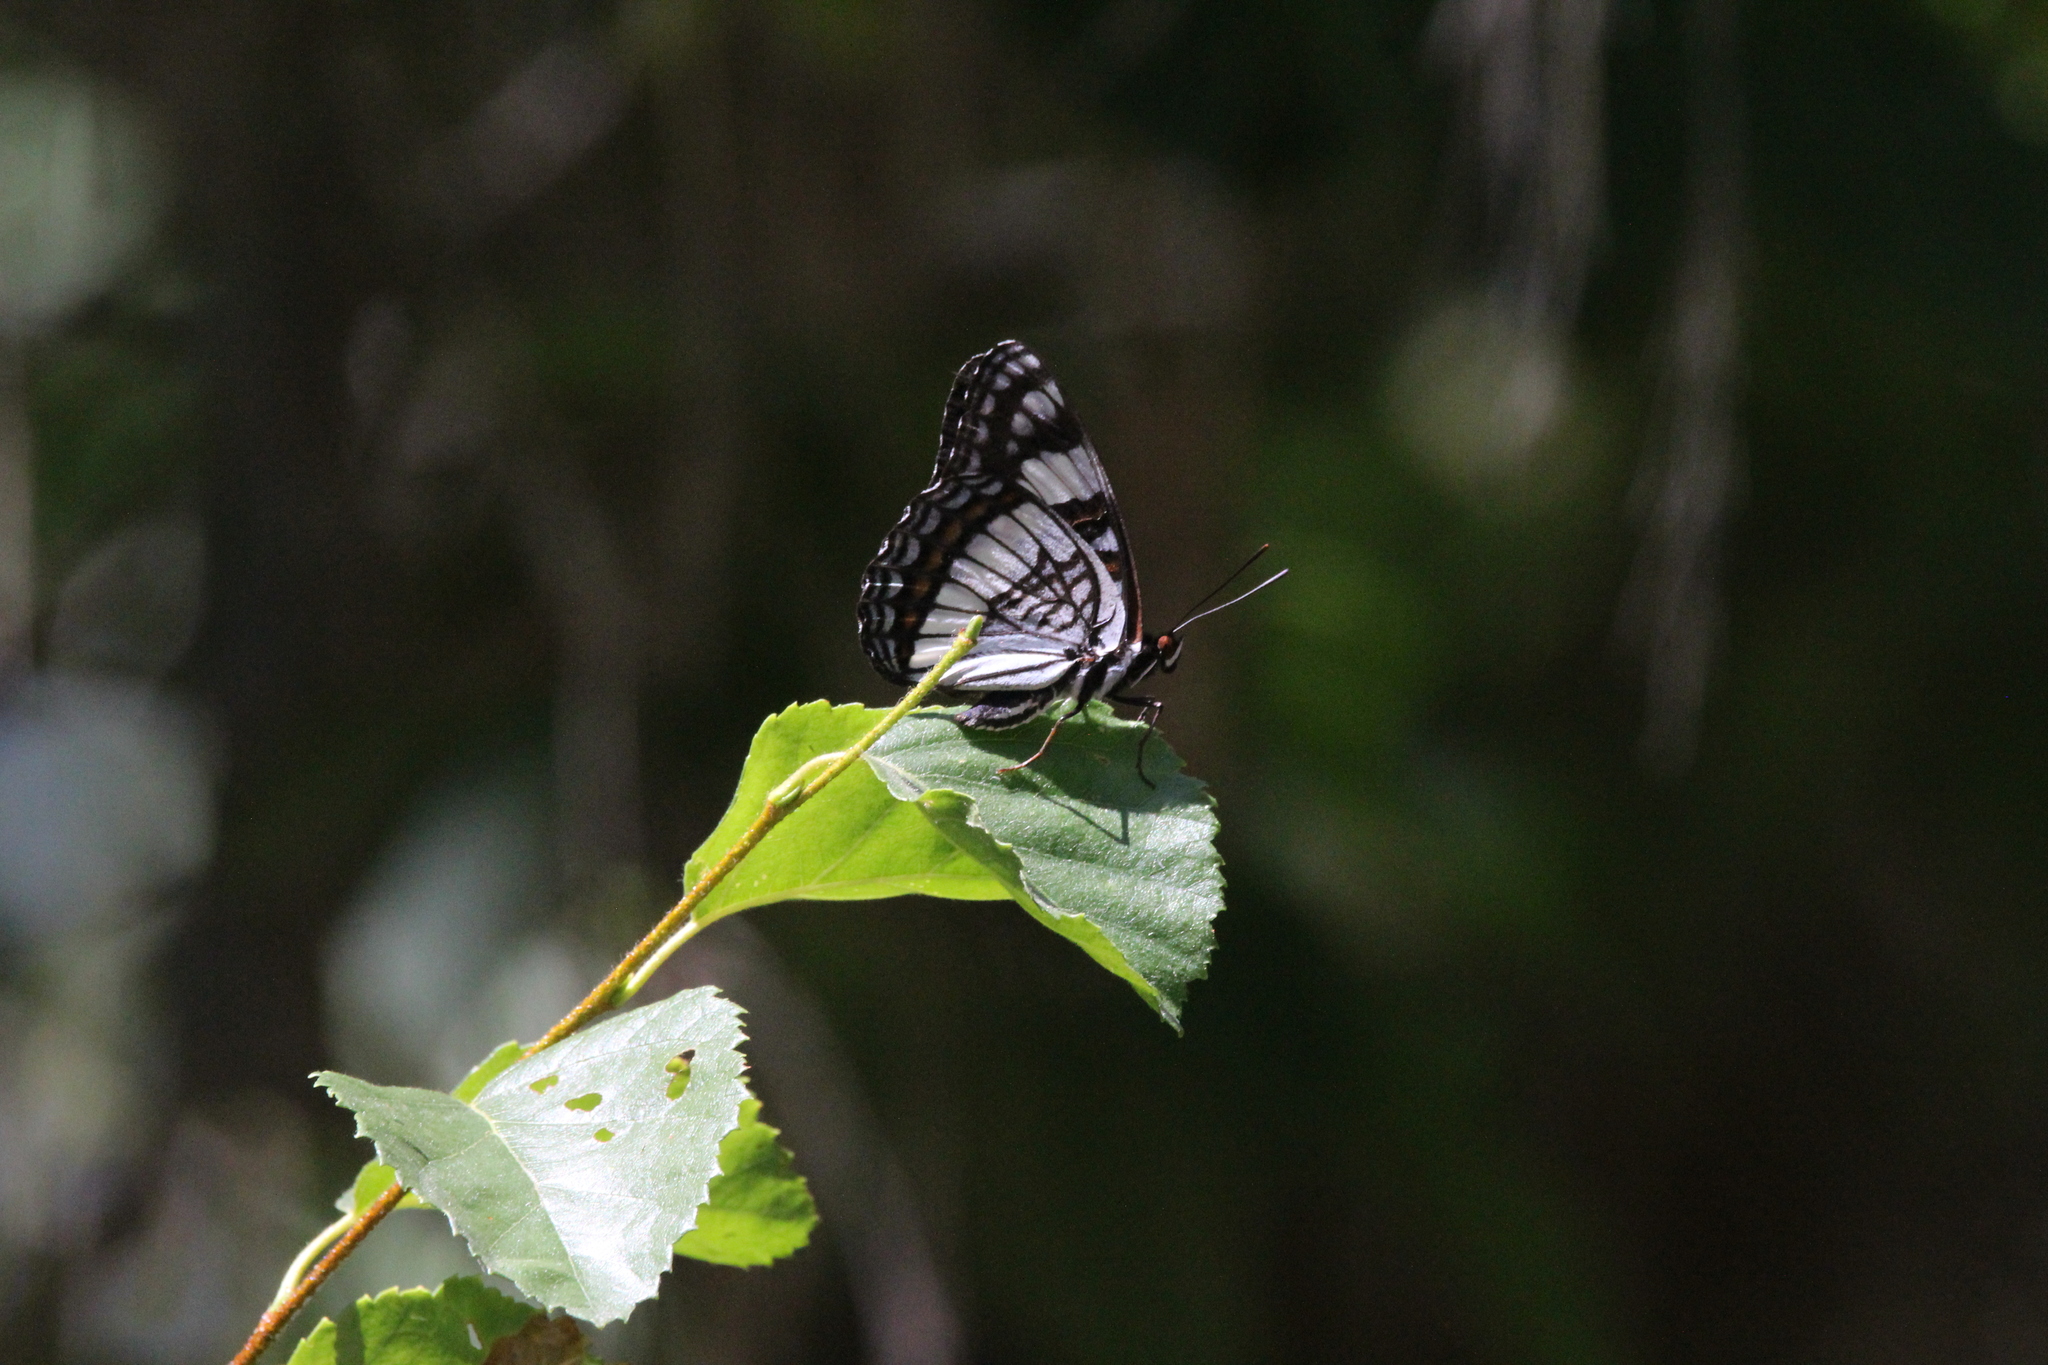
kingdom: Animalia
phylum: Arthropoda
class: Insecta
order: Lepidoptera
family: Nymphalidae
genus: Limenitis
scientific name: Limenitis weidemeyerii
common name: Weidemeyer's admiral
